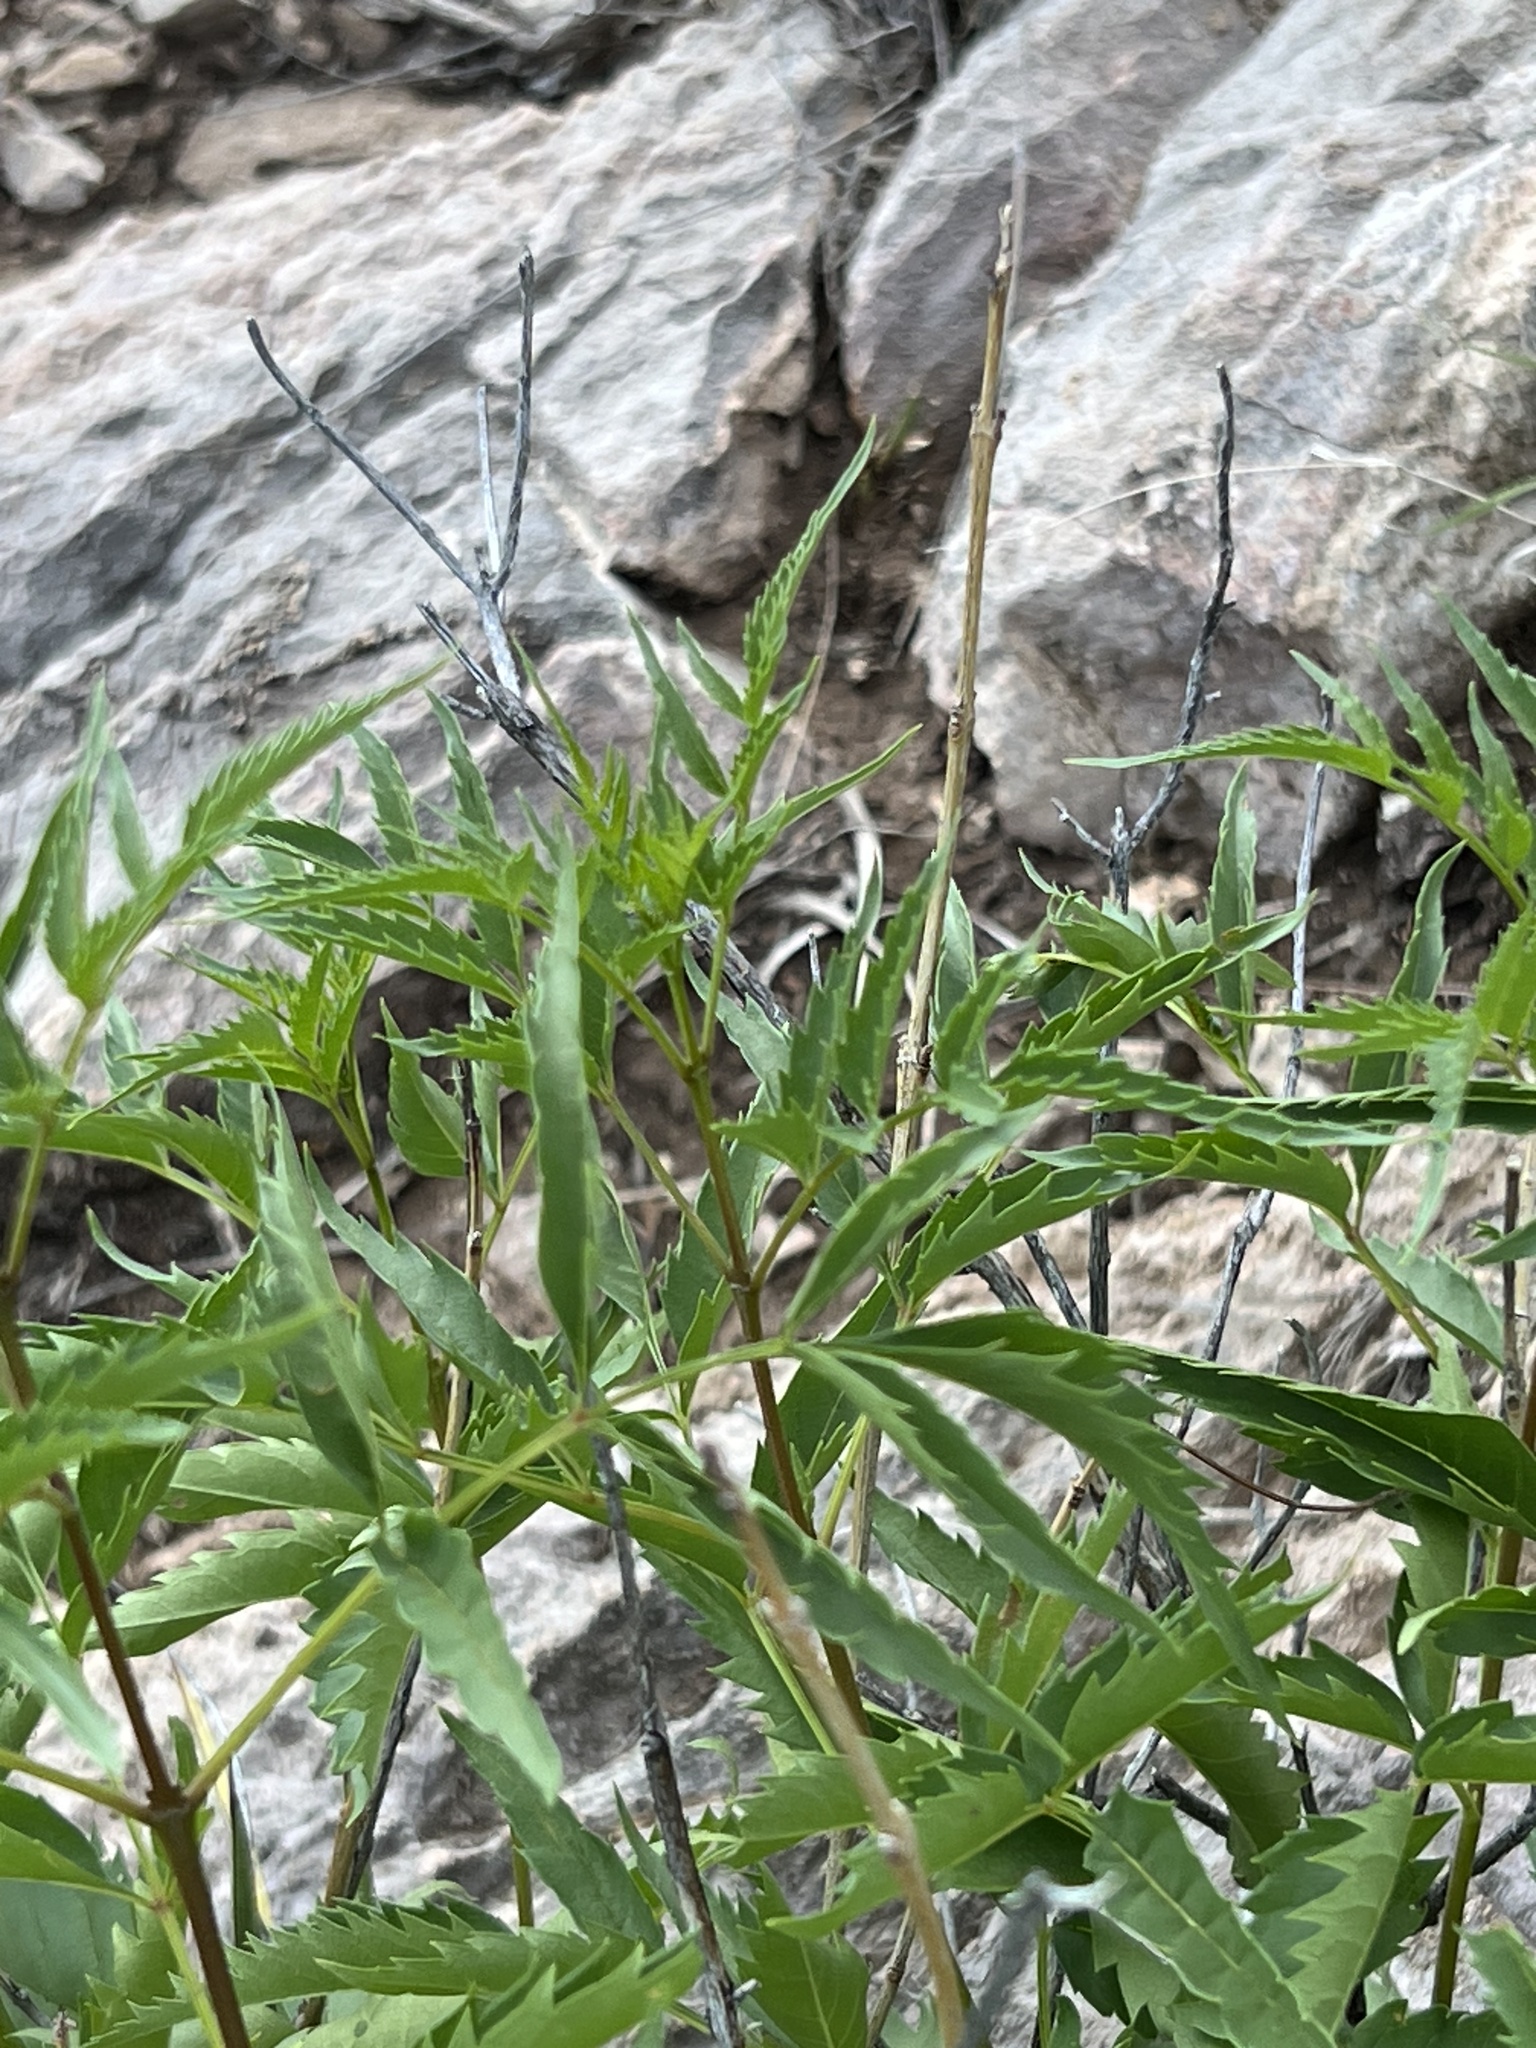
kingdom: Plantae
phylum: Tracheophyta
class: Magnoliopsida
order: Lamiales
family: Bignoniaceae
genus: Tecoma
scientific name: Tecoma stans
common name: Yellow trumpetbush
